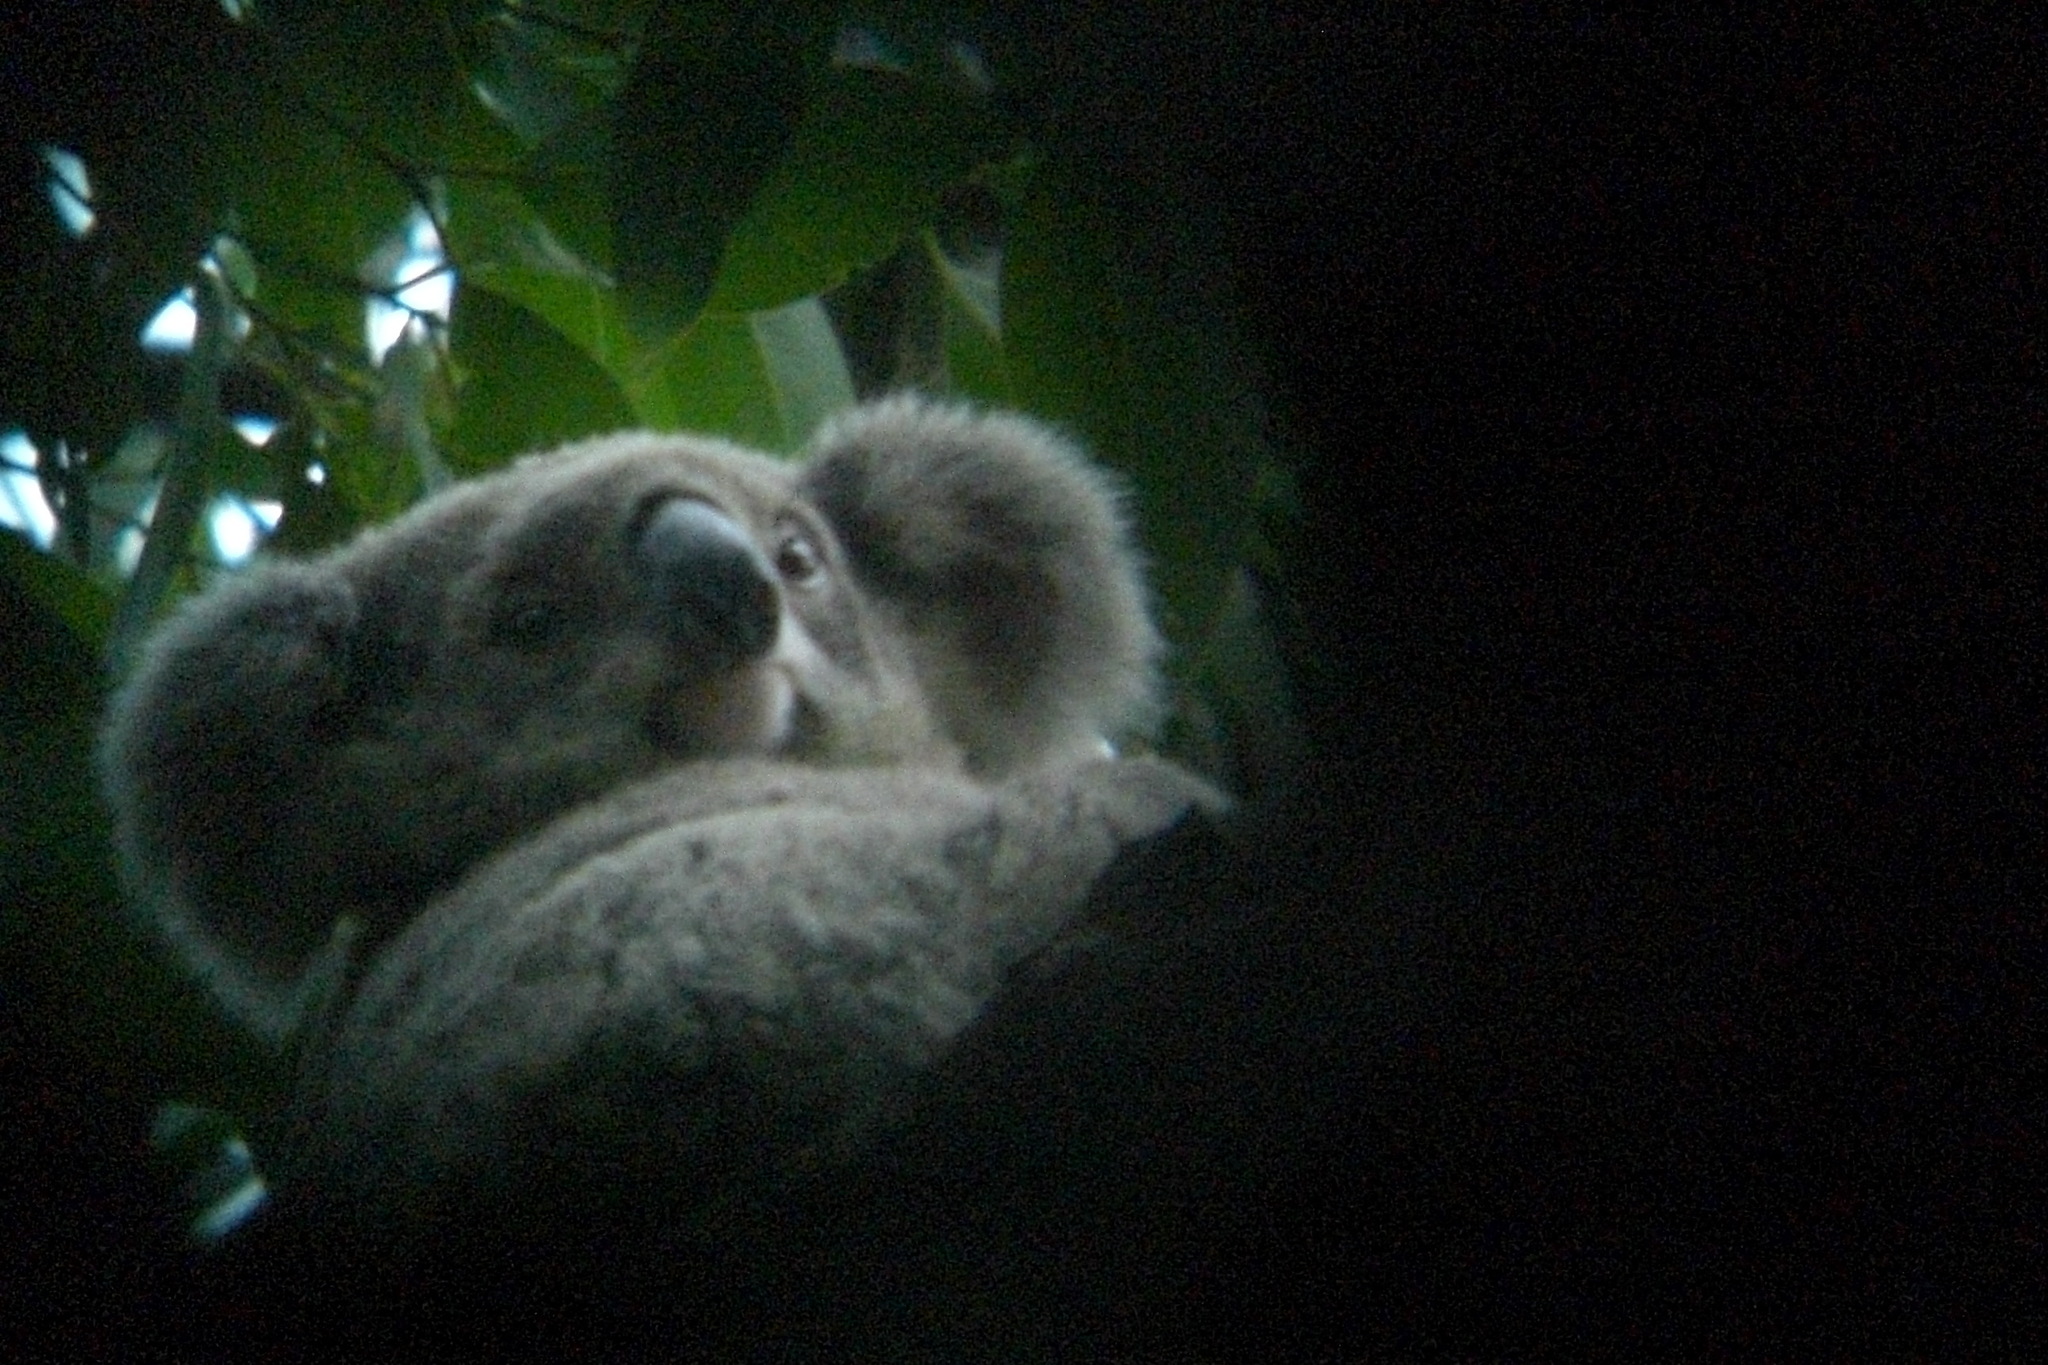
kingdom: Animalia
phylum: Chordata
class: Mammalia
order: Diprotodontia
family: Phascolarctidae
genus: Phascolarctos
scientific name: Phascolarctos cinereus
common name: Koala
